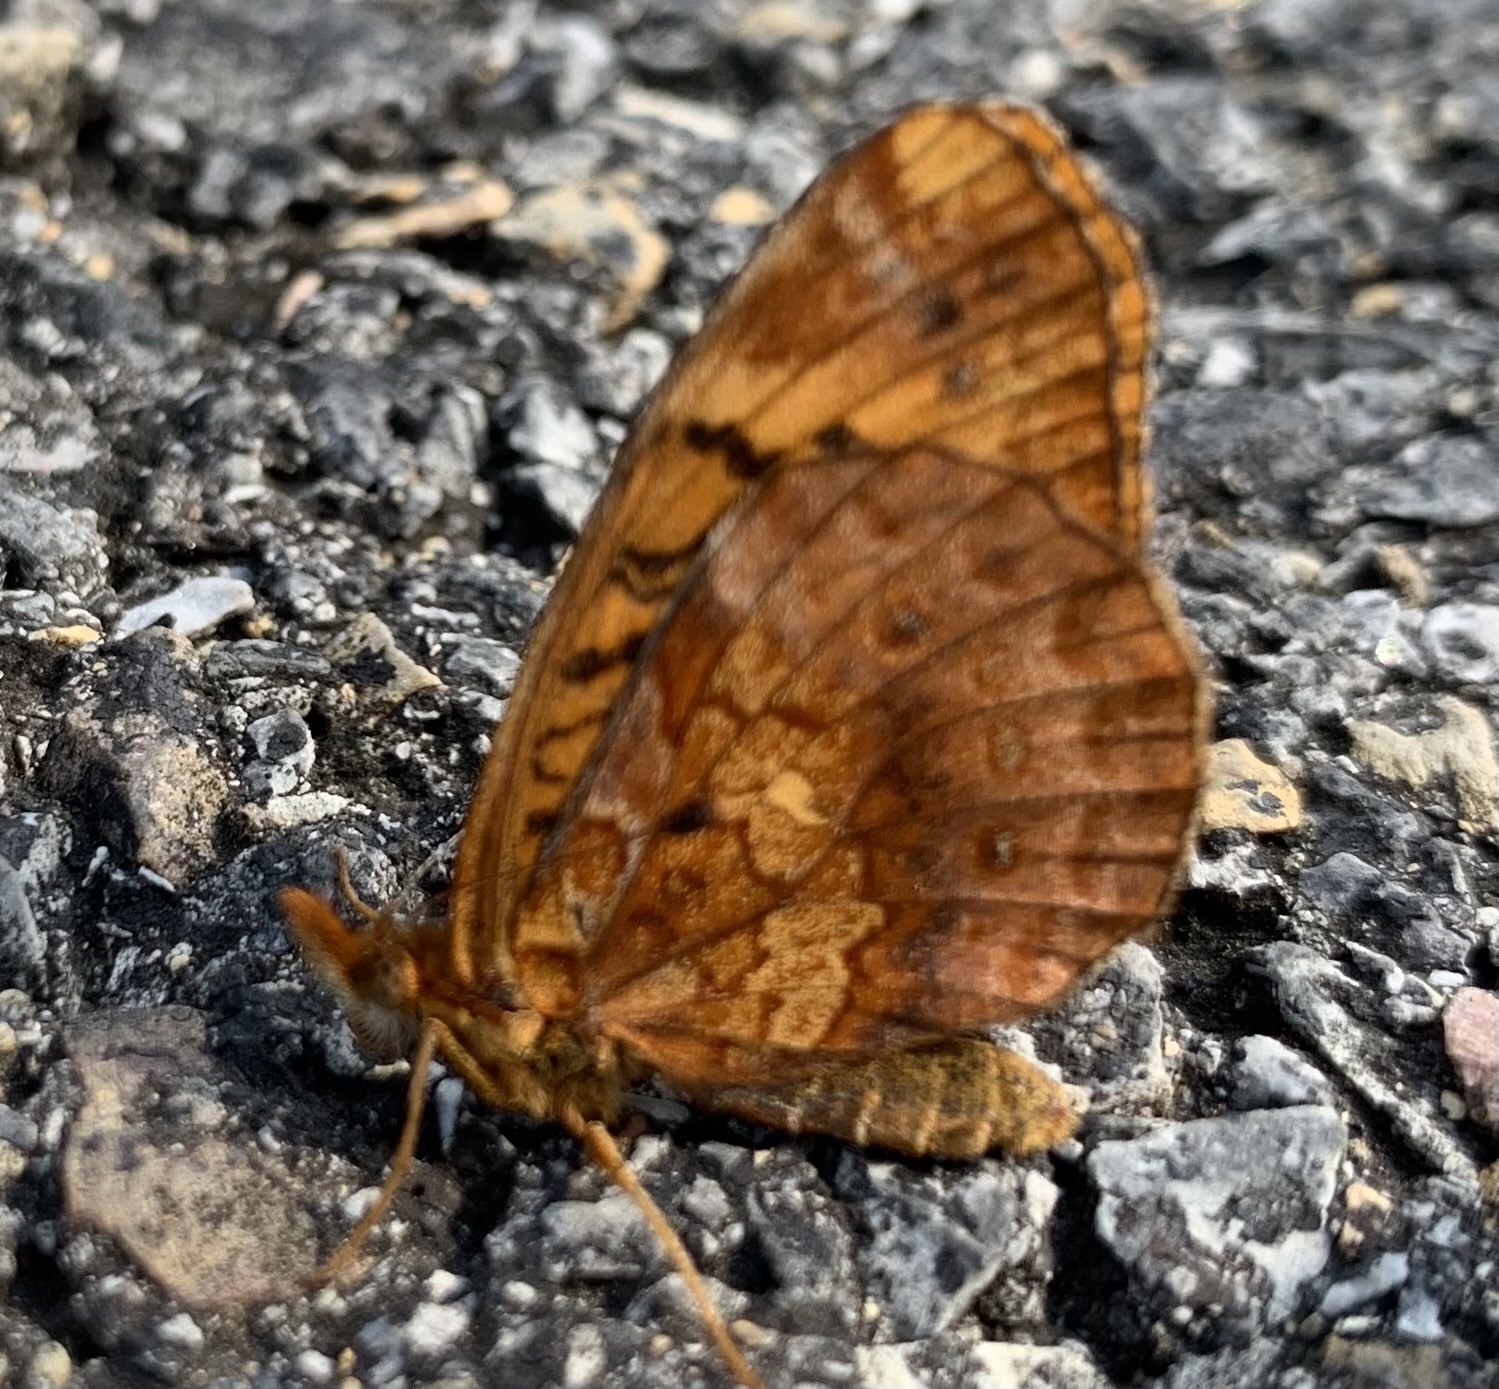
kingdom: Animalia
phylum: Arthropoda
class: Insecta
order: Lepidoptera
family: Nymphalidae
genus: Clossiana
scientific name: Clossiana toddi
